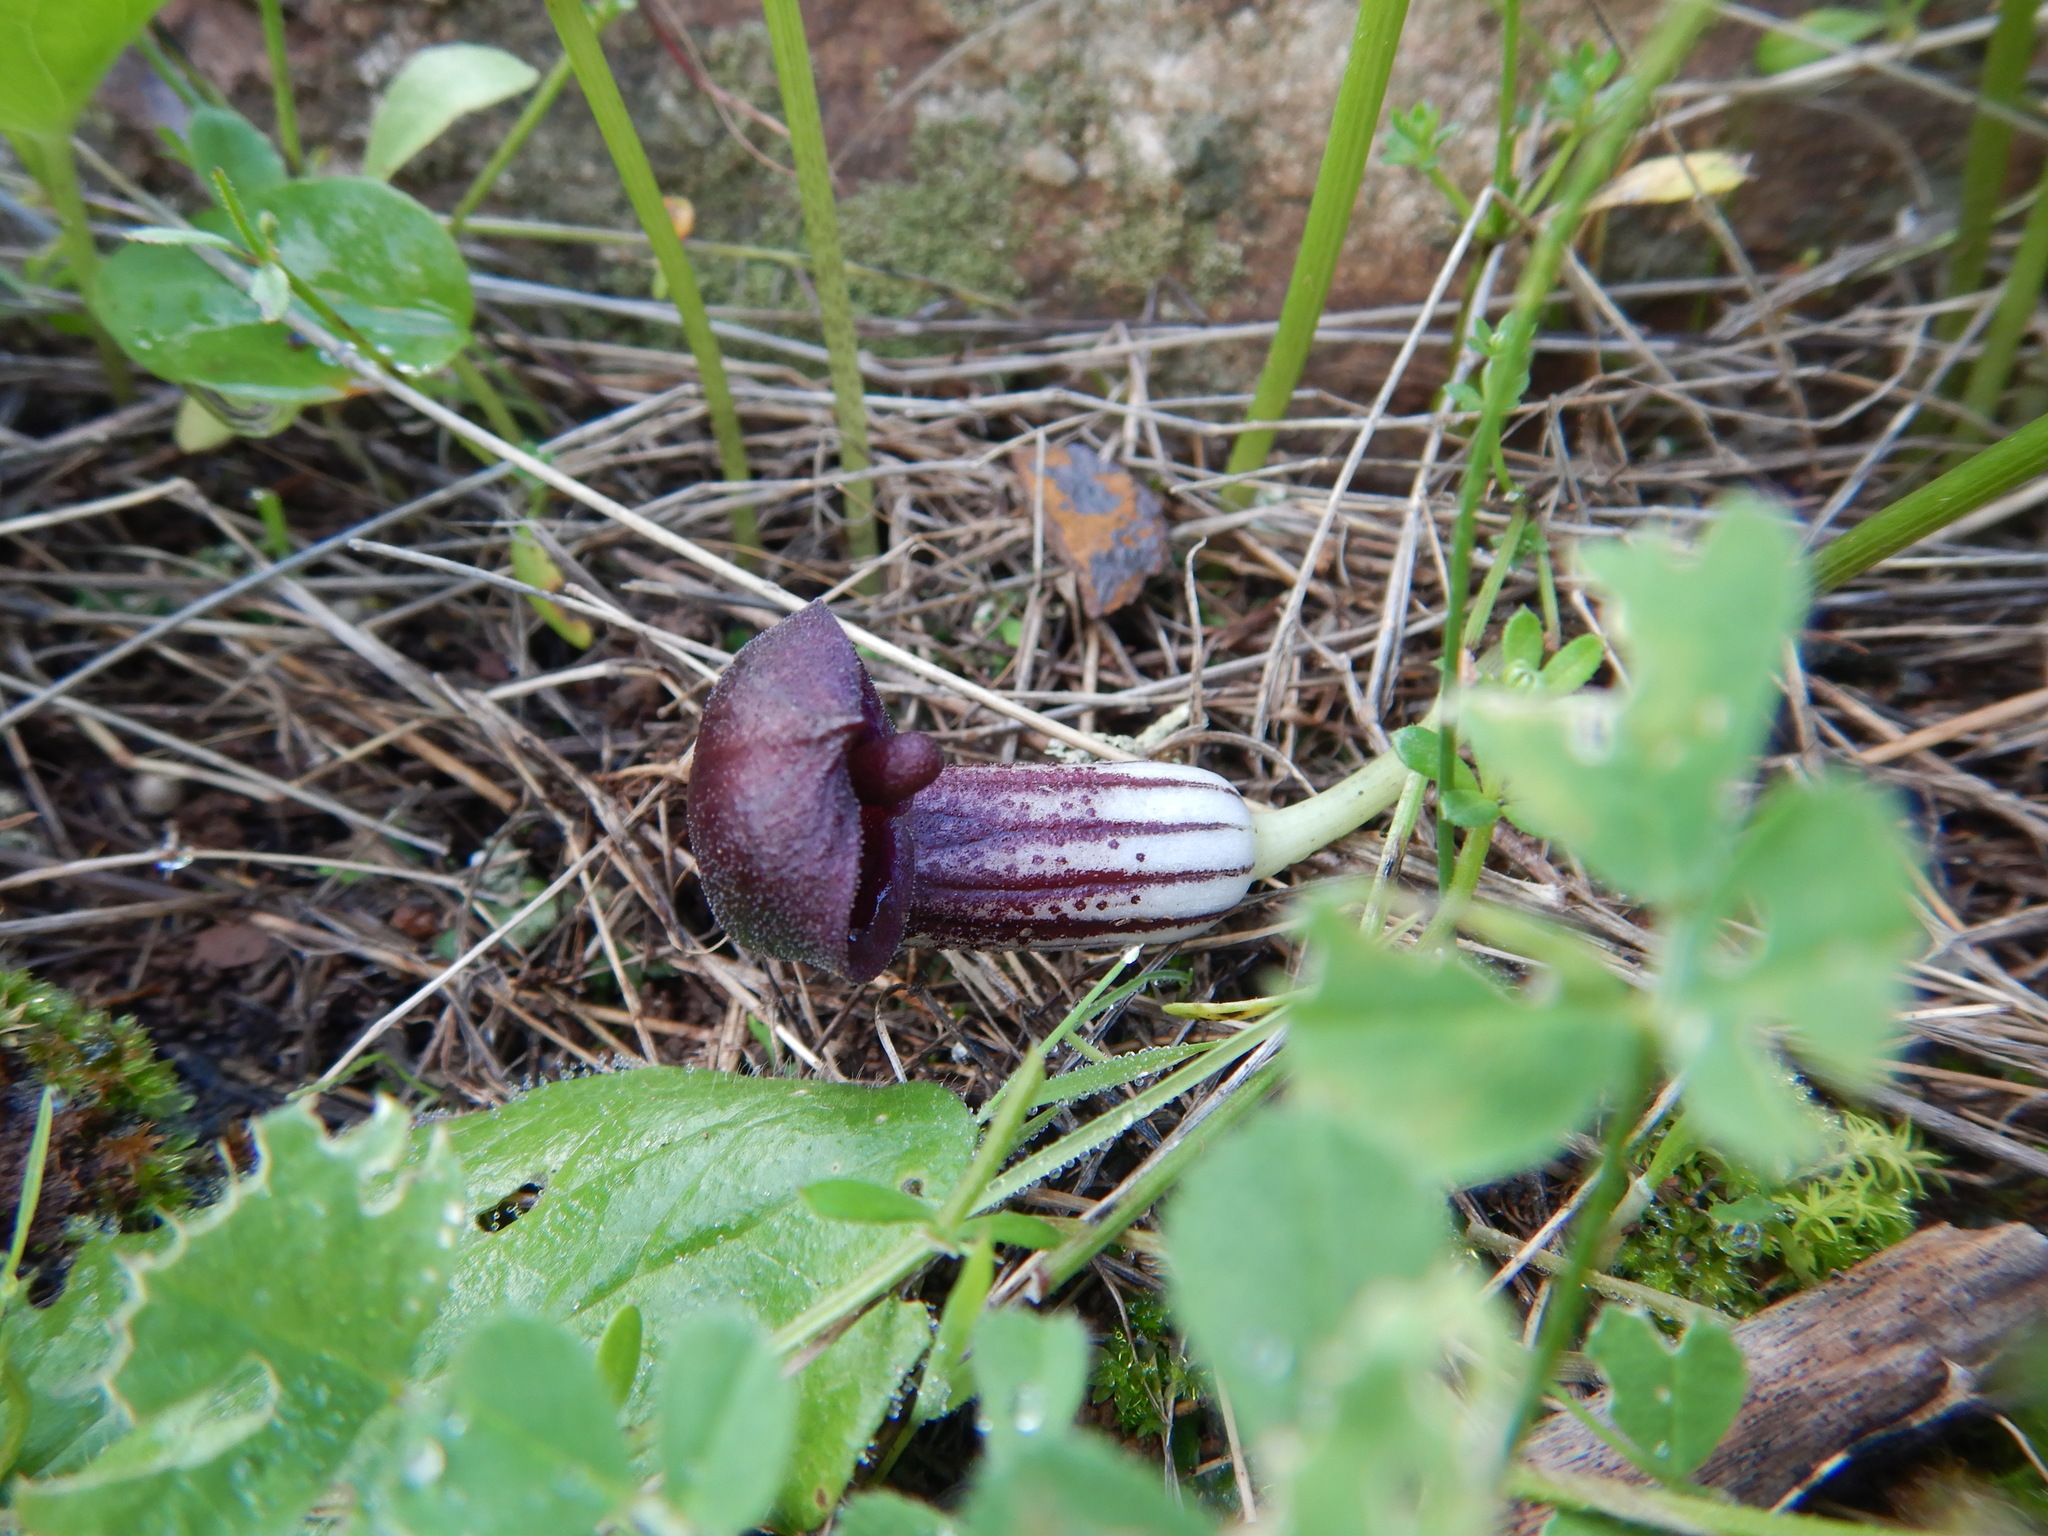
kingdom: Plantae
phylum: Tracheophyta
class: Liliopsida
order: Alismatales
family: Araceae
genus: Arisarum
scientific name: Arisarum simorrhinum
